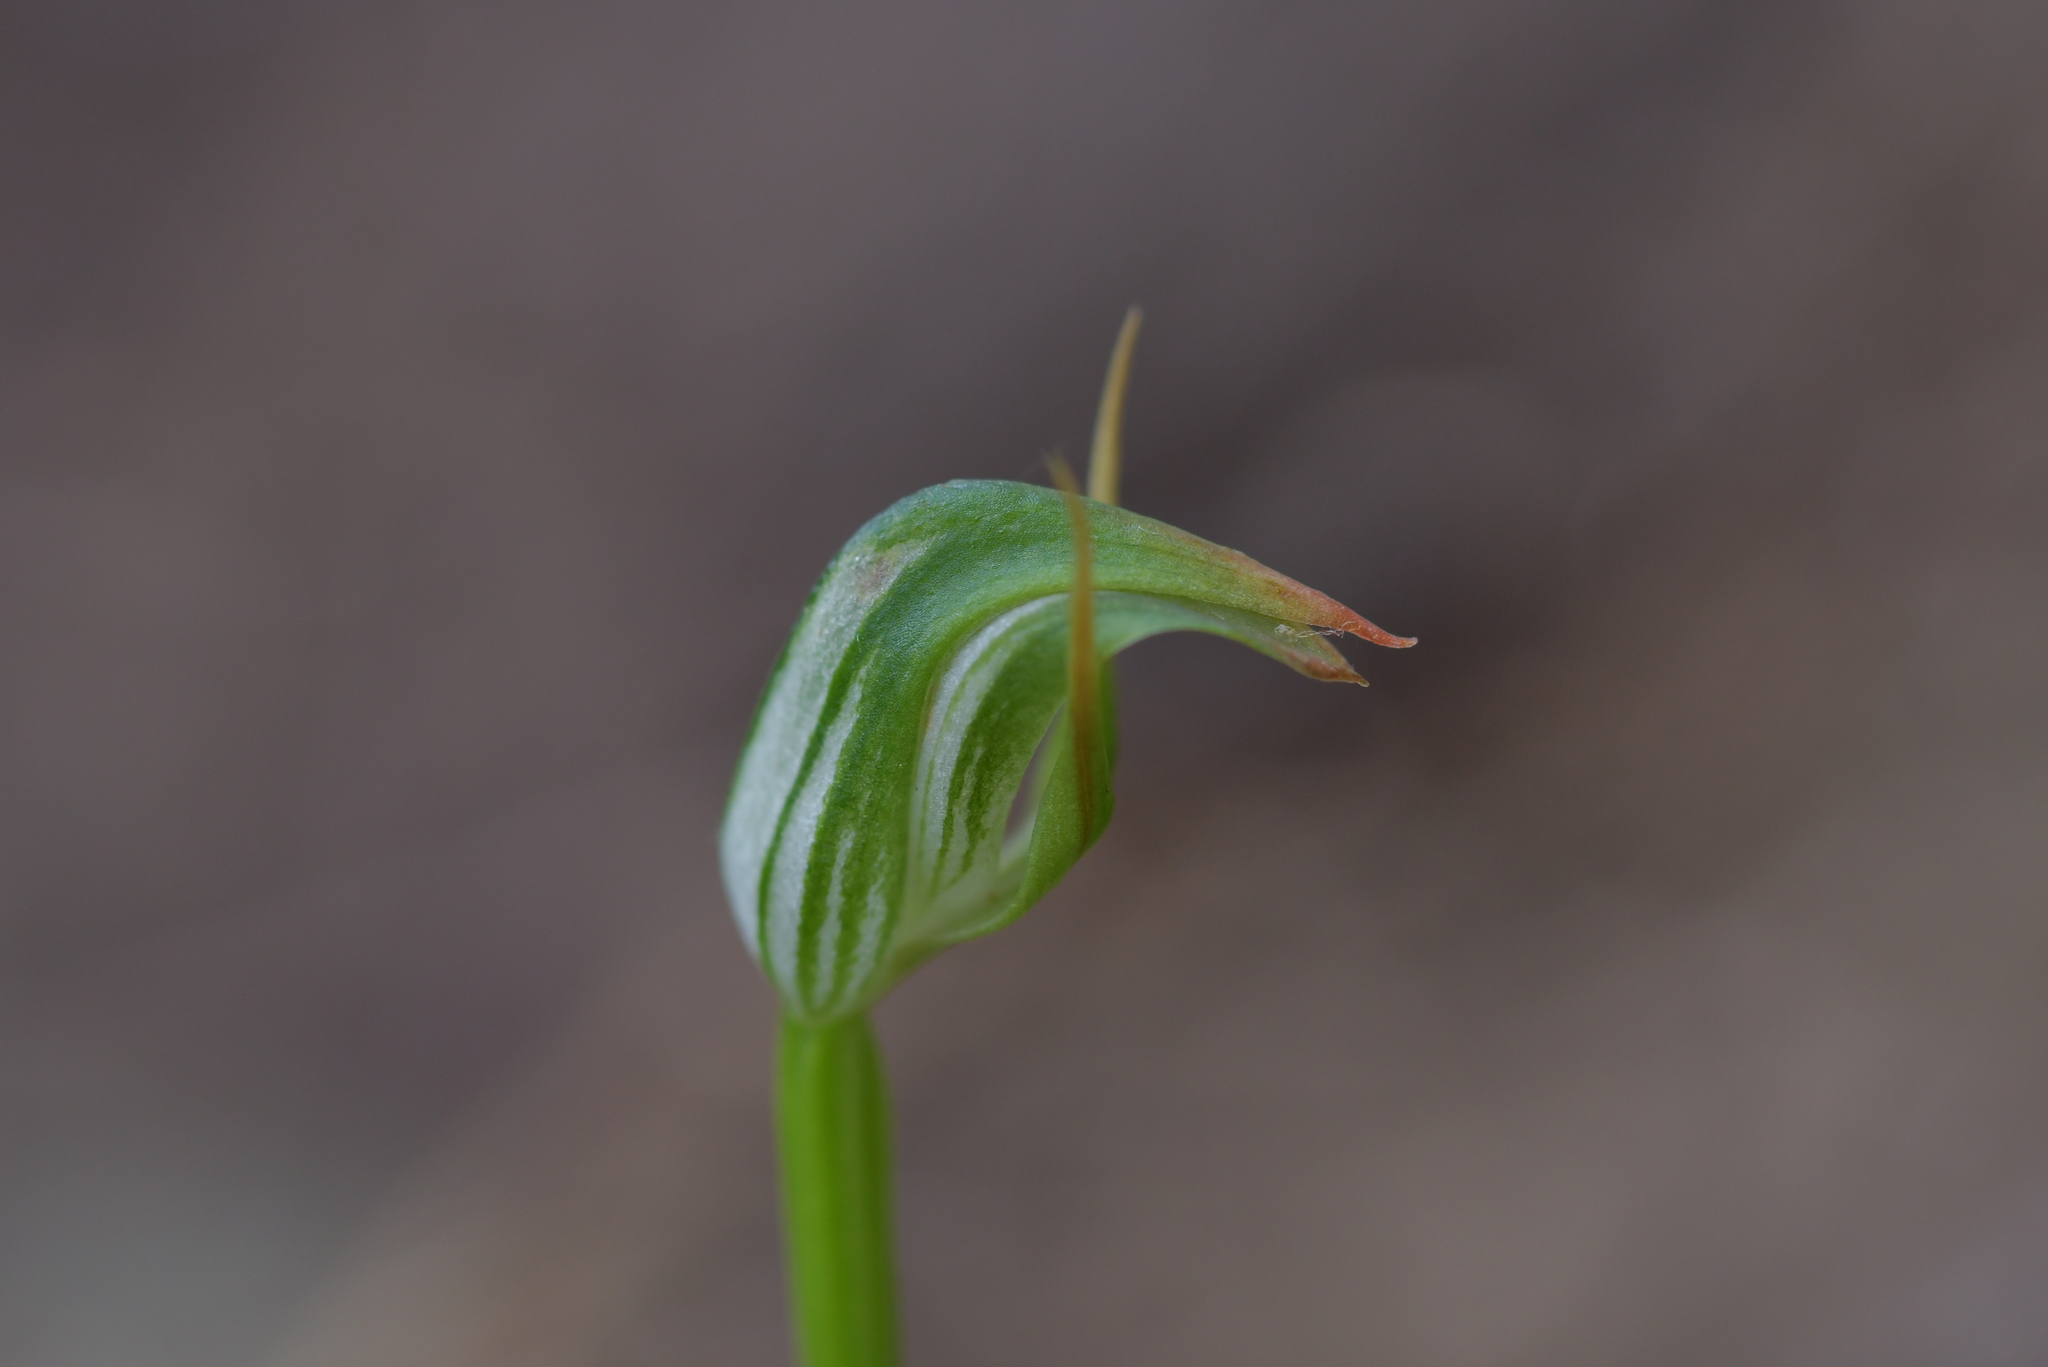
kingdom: Plantae
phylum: Tracheophyta
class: Liliopsida
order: Asparagales
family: Orchidaceae
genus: Pterostylis
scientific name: Pterostylis graminea
